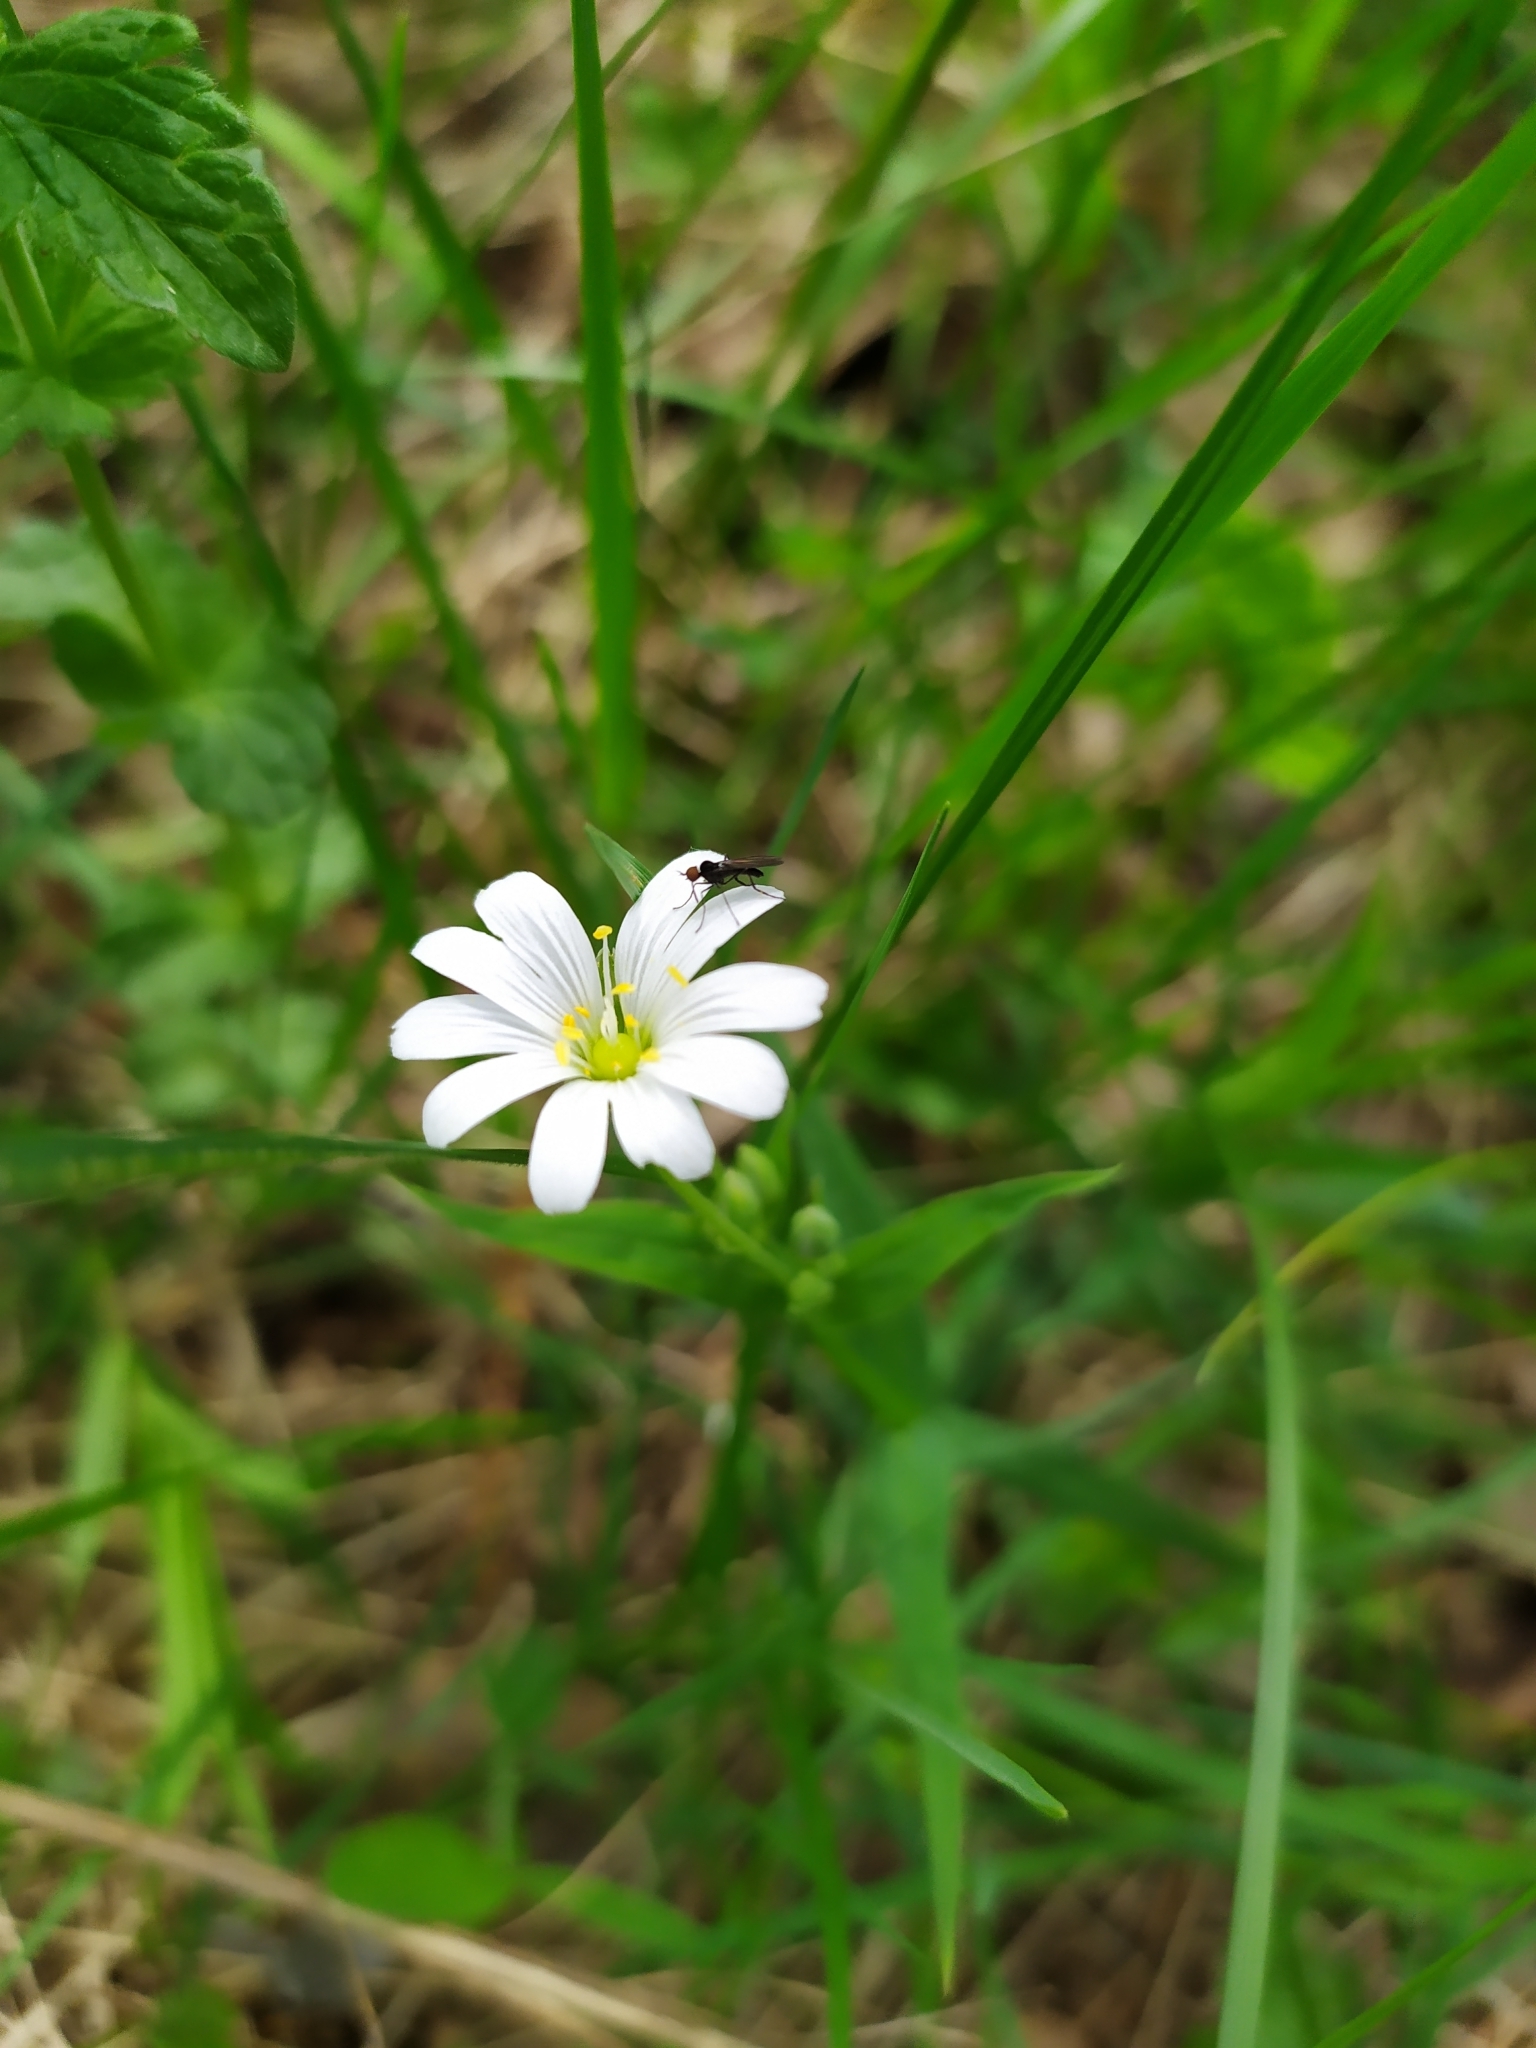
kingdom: Plantae
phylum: Tracheophyta
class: Magnoliopsida
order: Caryophyllales
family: Caryophyllaceae
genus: Rabelera
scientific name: Rabelera holostea
